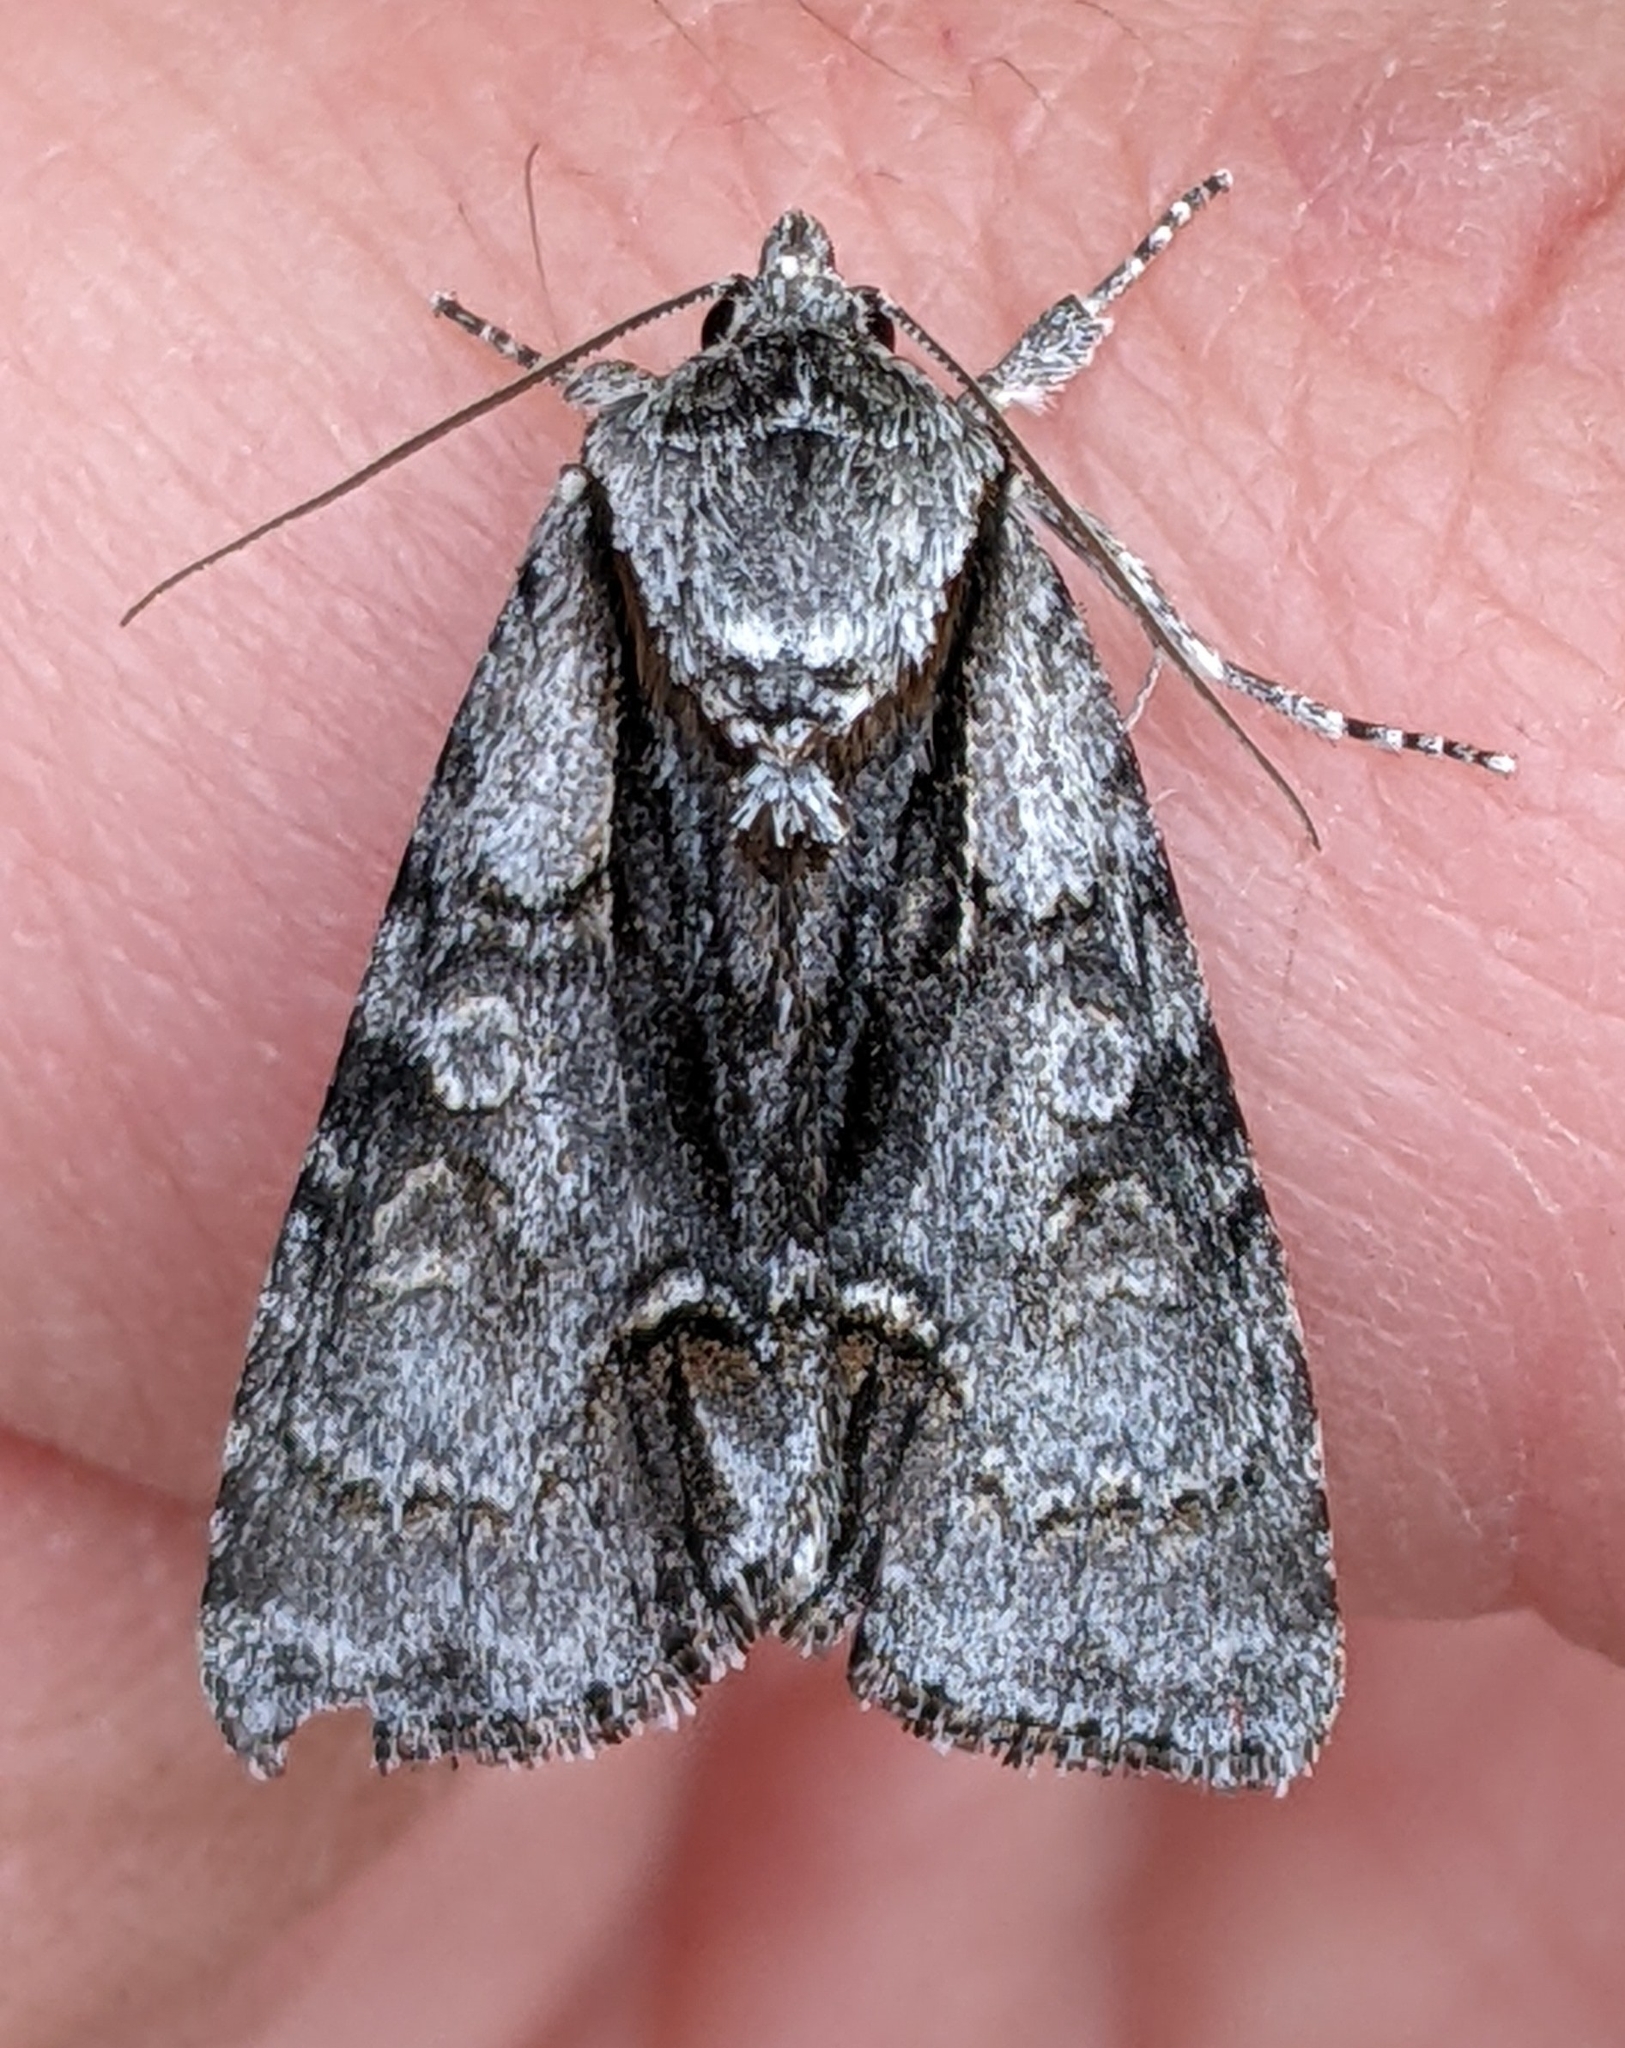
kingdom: Animalia
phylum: Arthropoda
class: Insecta
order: Lepidoptera
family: Noctuidae
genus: Acronicta
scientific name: Acronicta mansueta
